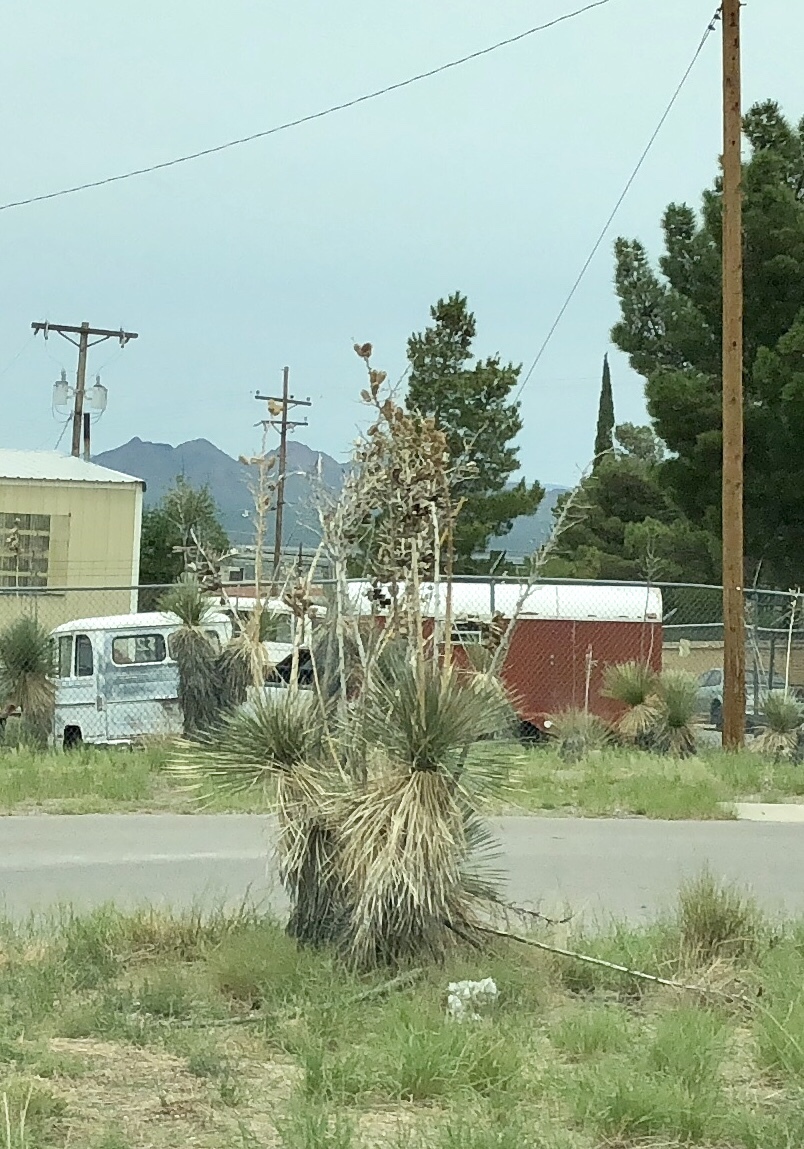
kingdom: Plantae
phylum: Tracheophyta
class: Liliopsida
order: Asparagales
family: Asparagaceae
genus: Yucca
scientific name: Yucca elata
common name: Palmella
